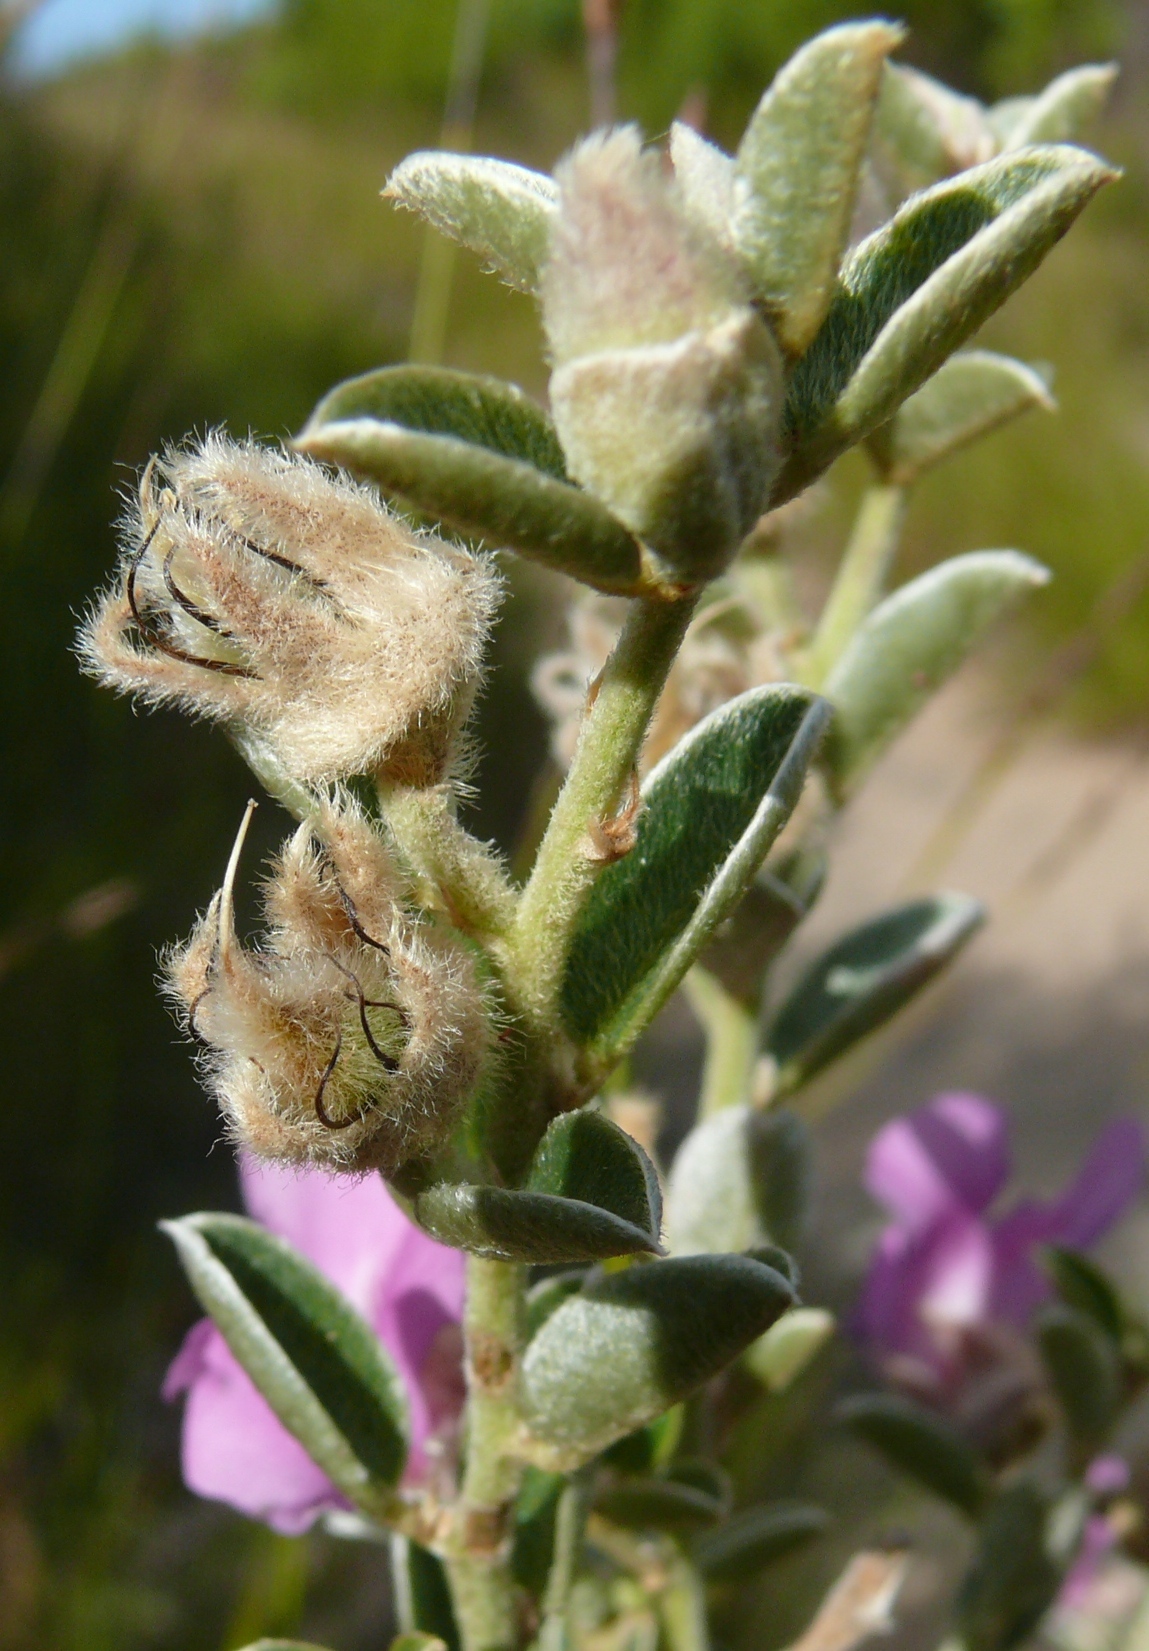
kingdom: Plantae
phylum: Tracheophyta
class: Magnoliopsida
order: Fabales
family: Fabaceae
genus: Podalyria
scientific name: Podalyria burchellii
